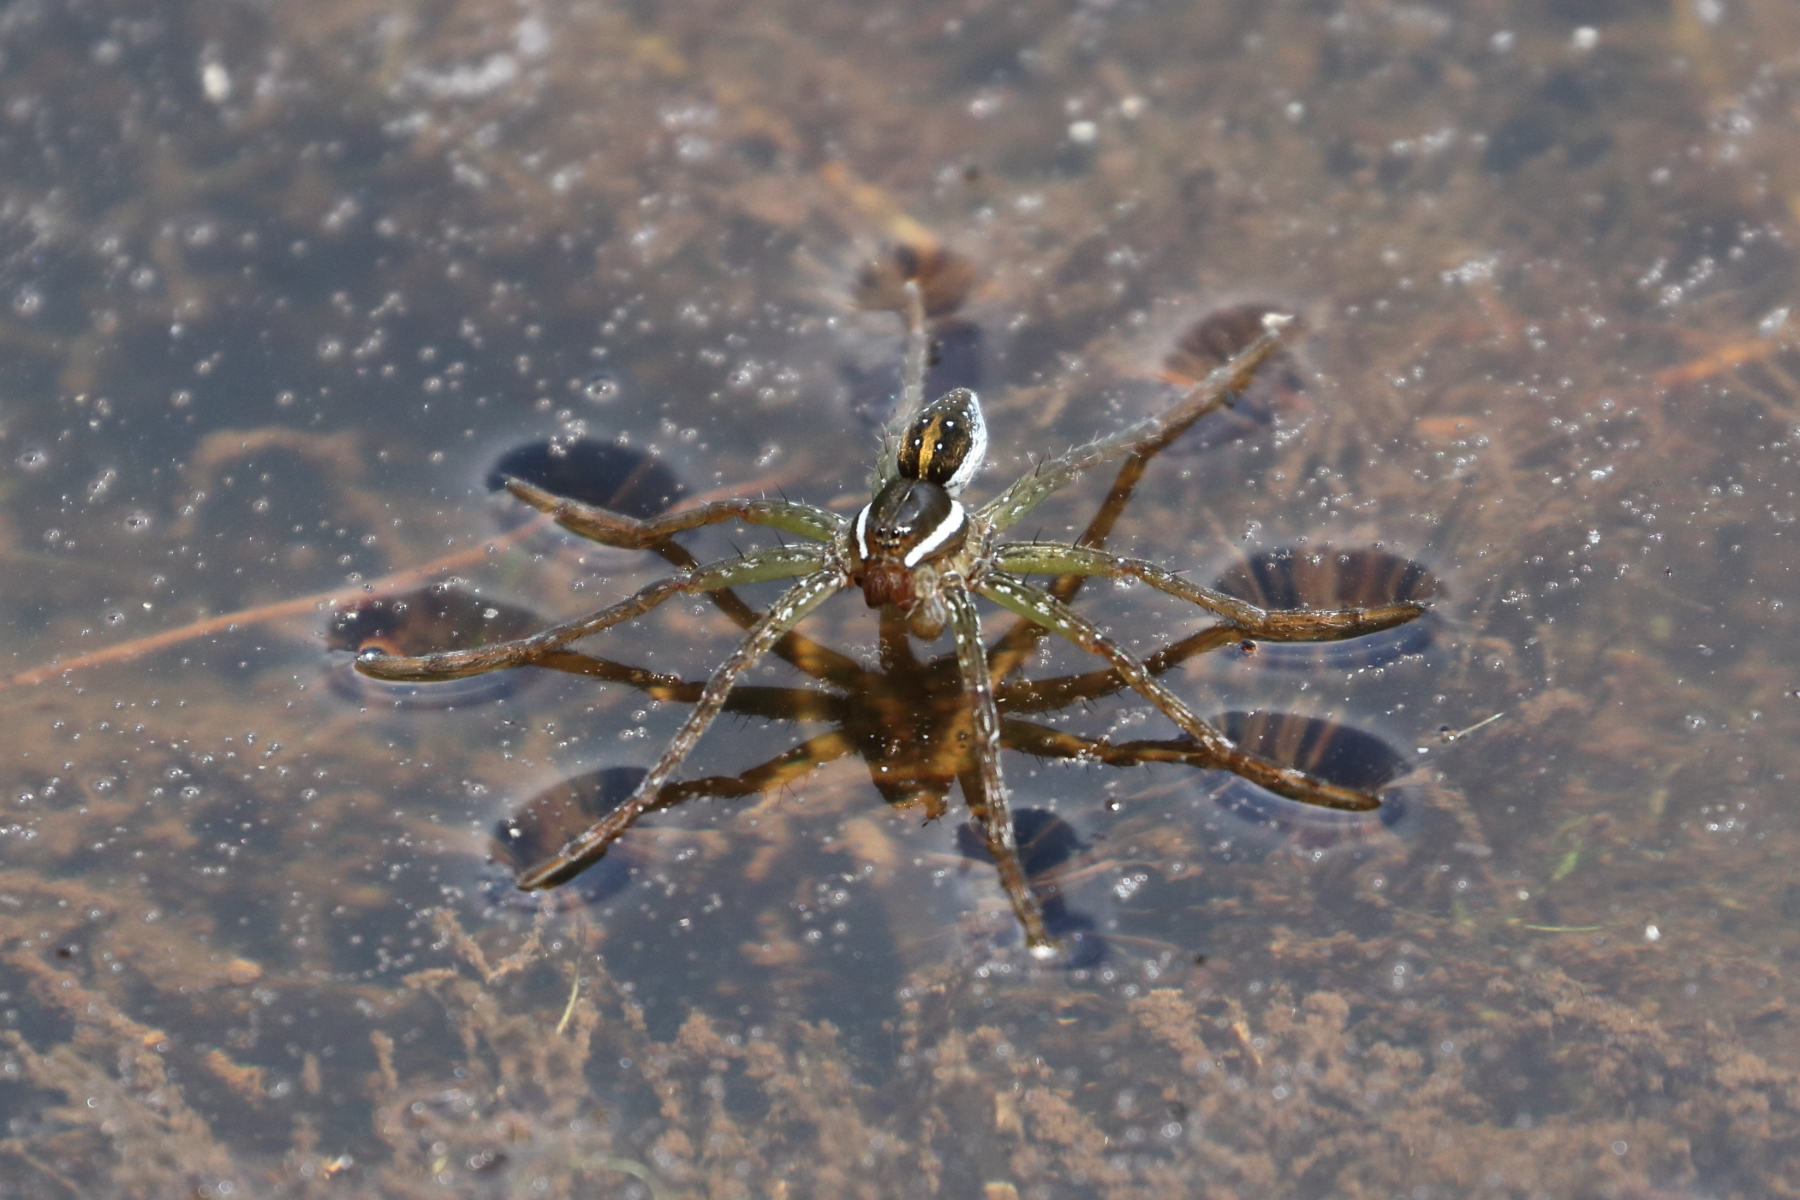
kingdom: Animalia
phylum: Arthropoda
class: Arachnida
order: Araneae
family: Pisauridae
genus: Dolomedes
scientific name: Dolomedes triton
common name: Six-spotted fishing spider
